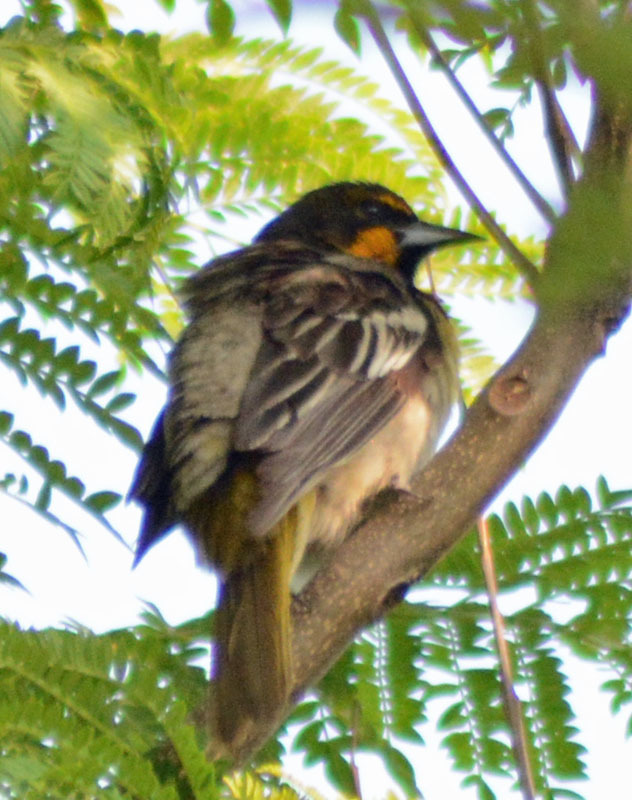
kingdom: Animalia
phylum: Chordata
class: Aves
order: Passeriformes
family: Icteridae
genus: Icterus
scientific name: Icterus abeillei
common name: Black-backed oriole
